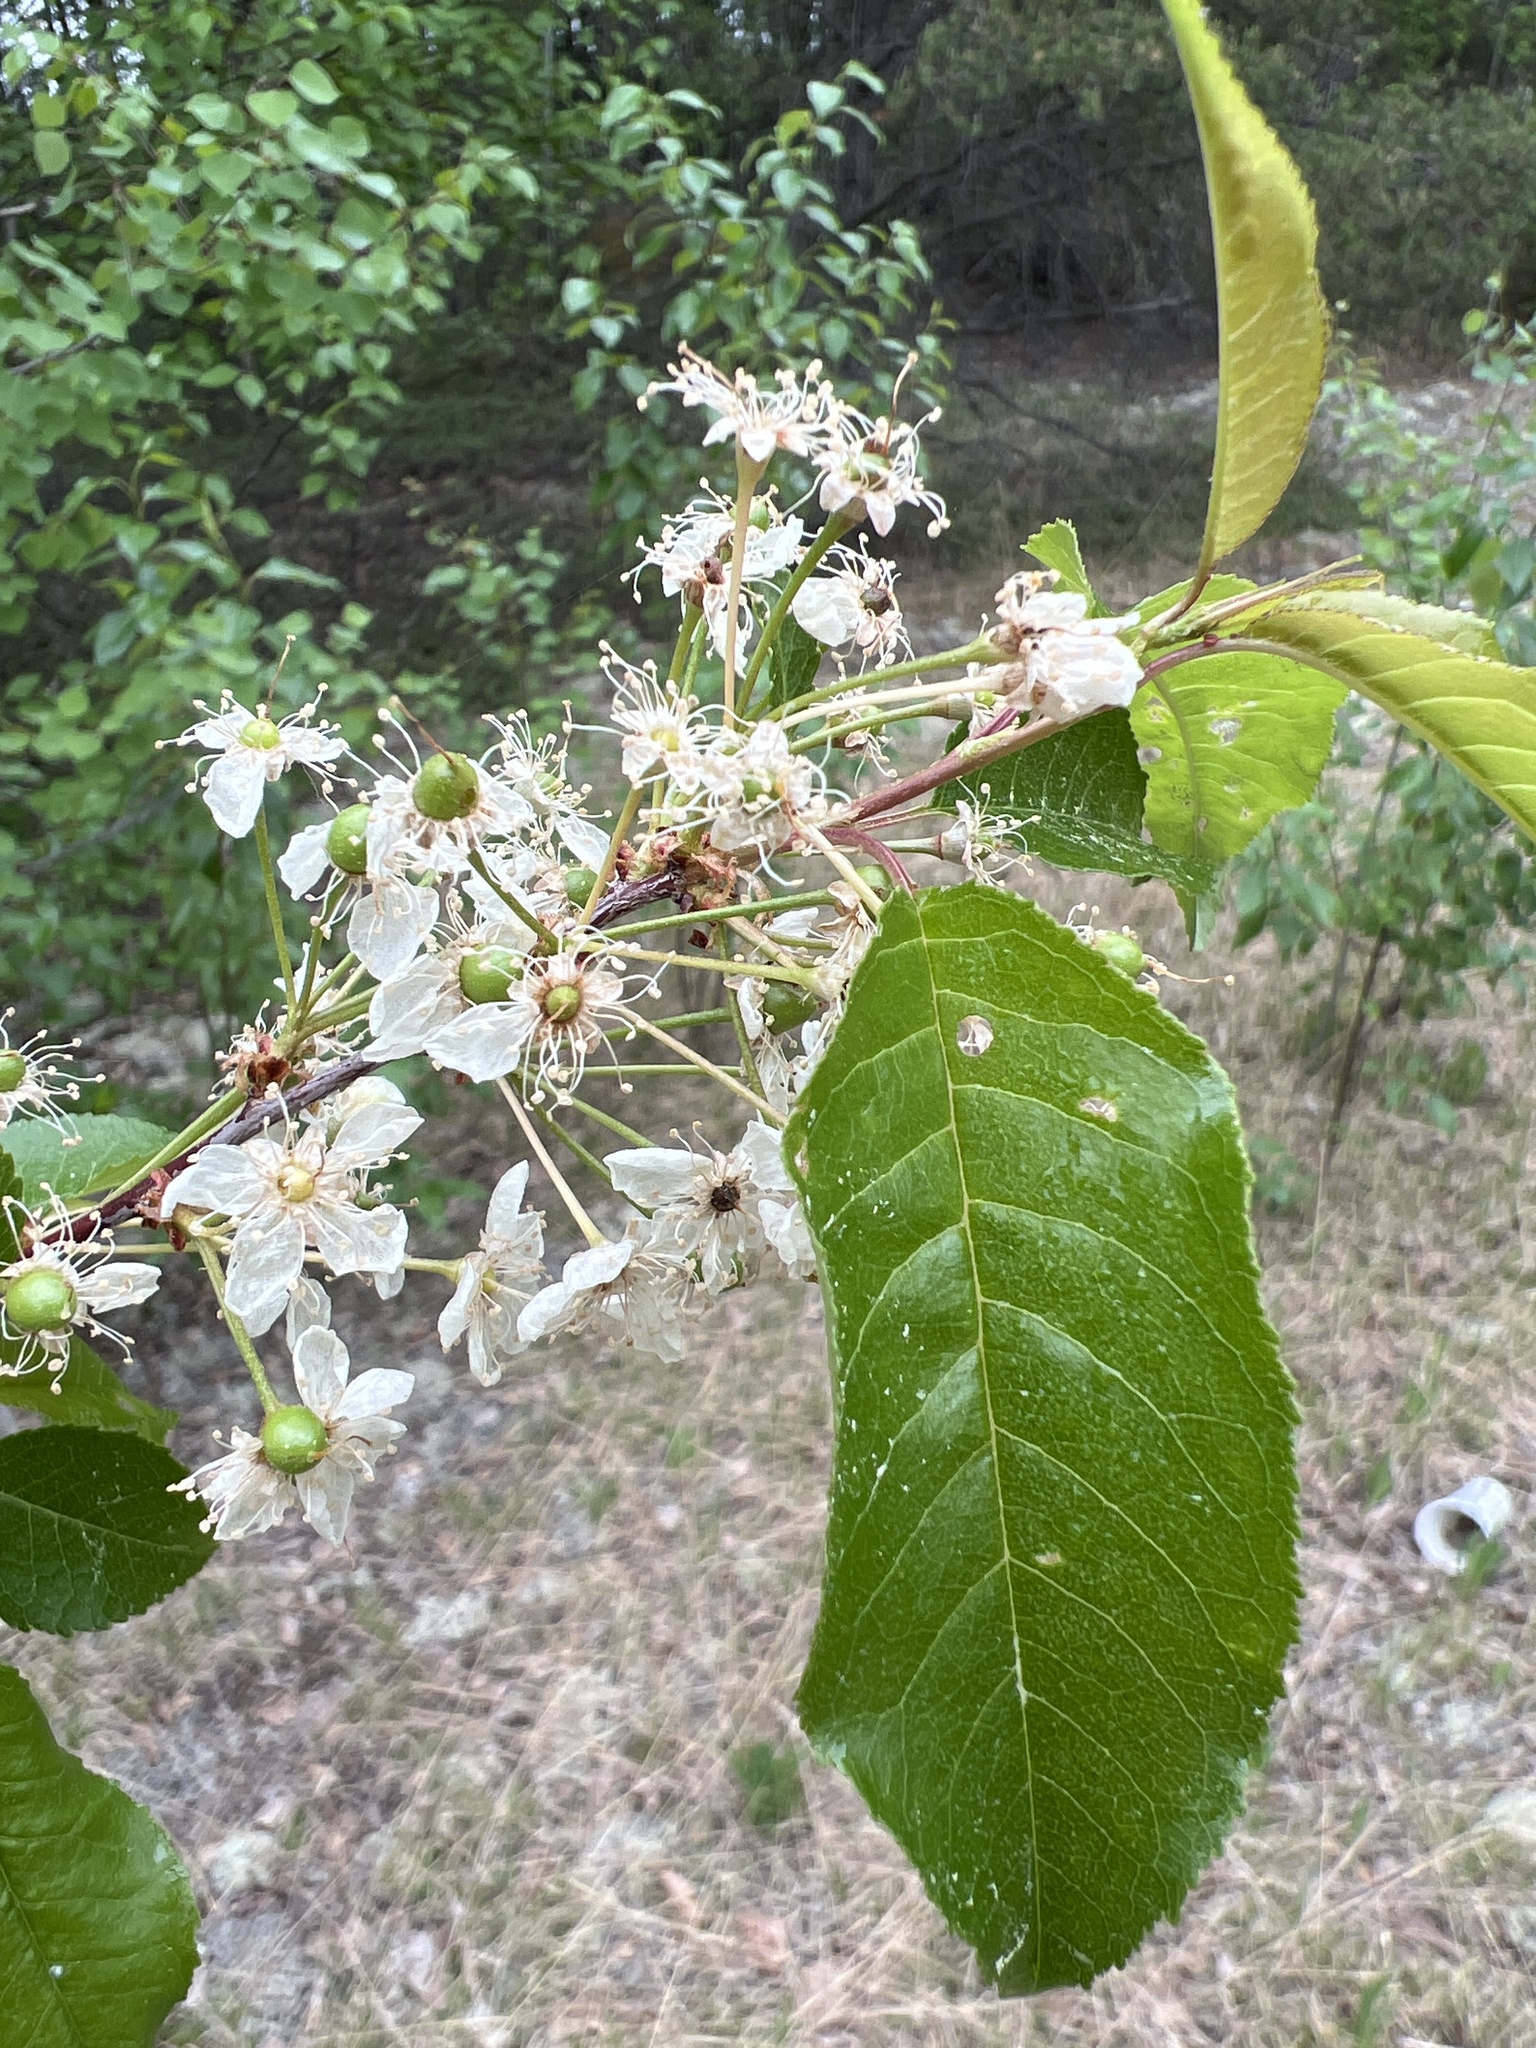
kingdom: Plantae
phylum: Tracheophyta
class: Magnoliopsida
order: Rosales
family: Rosaceae
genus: Prunus
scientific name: Prunus pensylvanica
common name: Pin cherry
